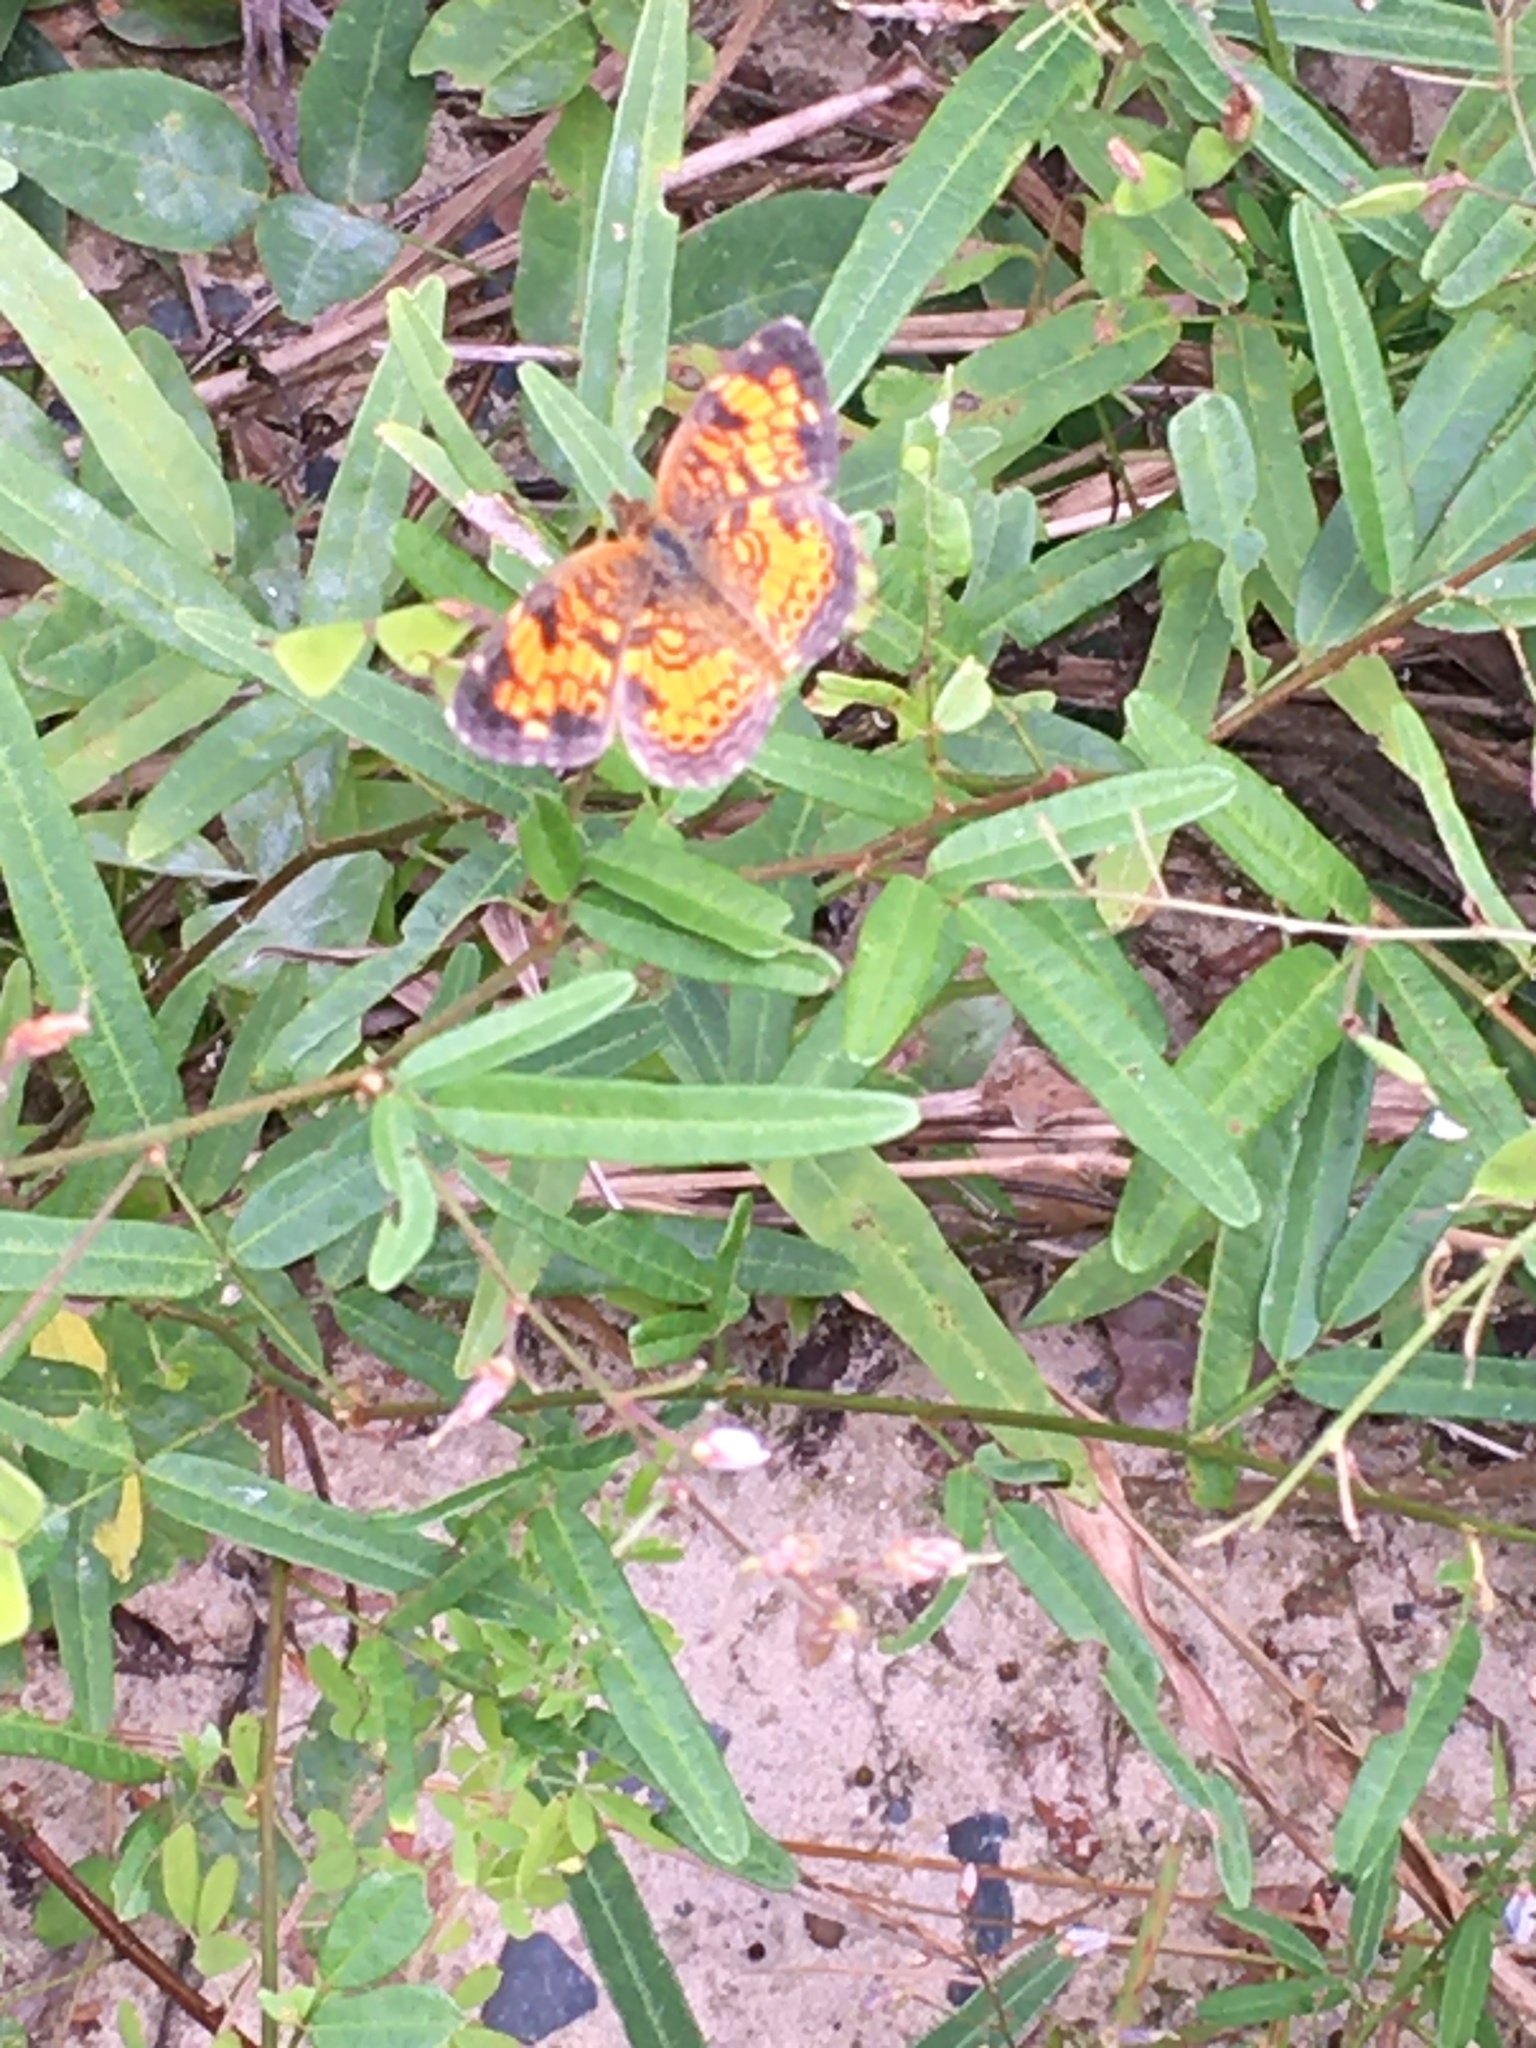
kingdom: Animalia
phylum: Arthropoda
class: Insecta
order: Lepidoptera
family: Nymphalidae
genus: Phyciodes
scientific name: Phyciodes tharos
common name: Pearl crescent
